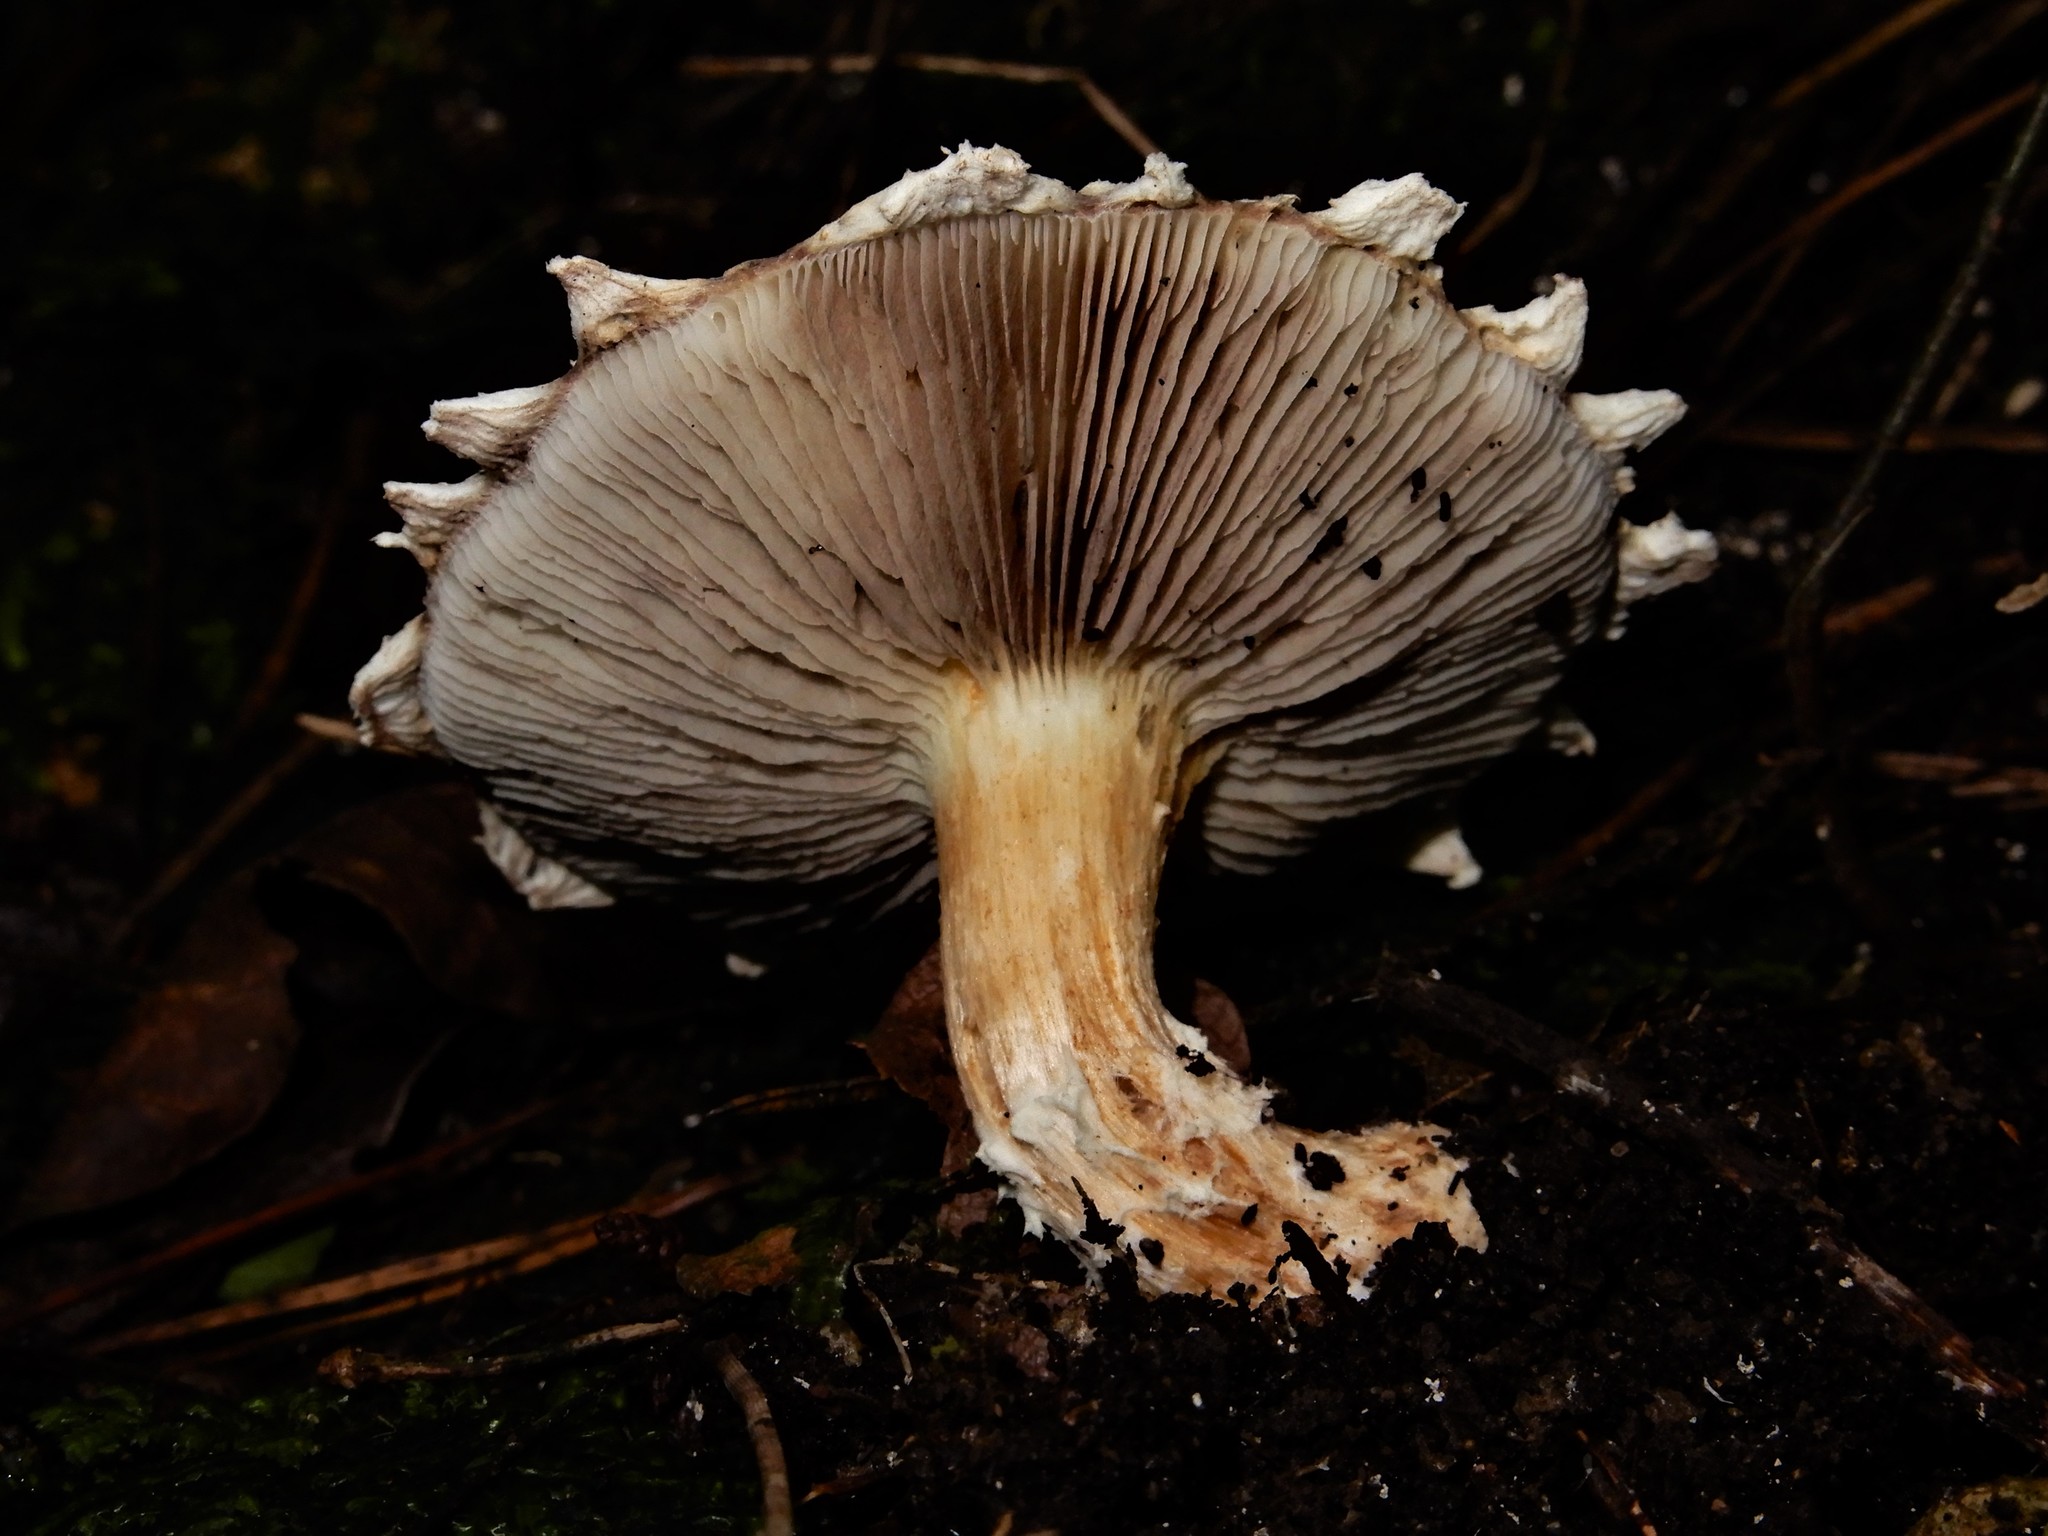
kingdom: Fungi
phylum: Basidiomycota
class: Agaricomycetes
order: Agaricales
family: Strophariaceae
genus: Stropharia
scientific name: Stropharia
